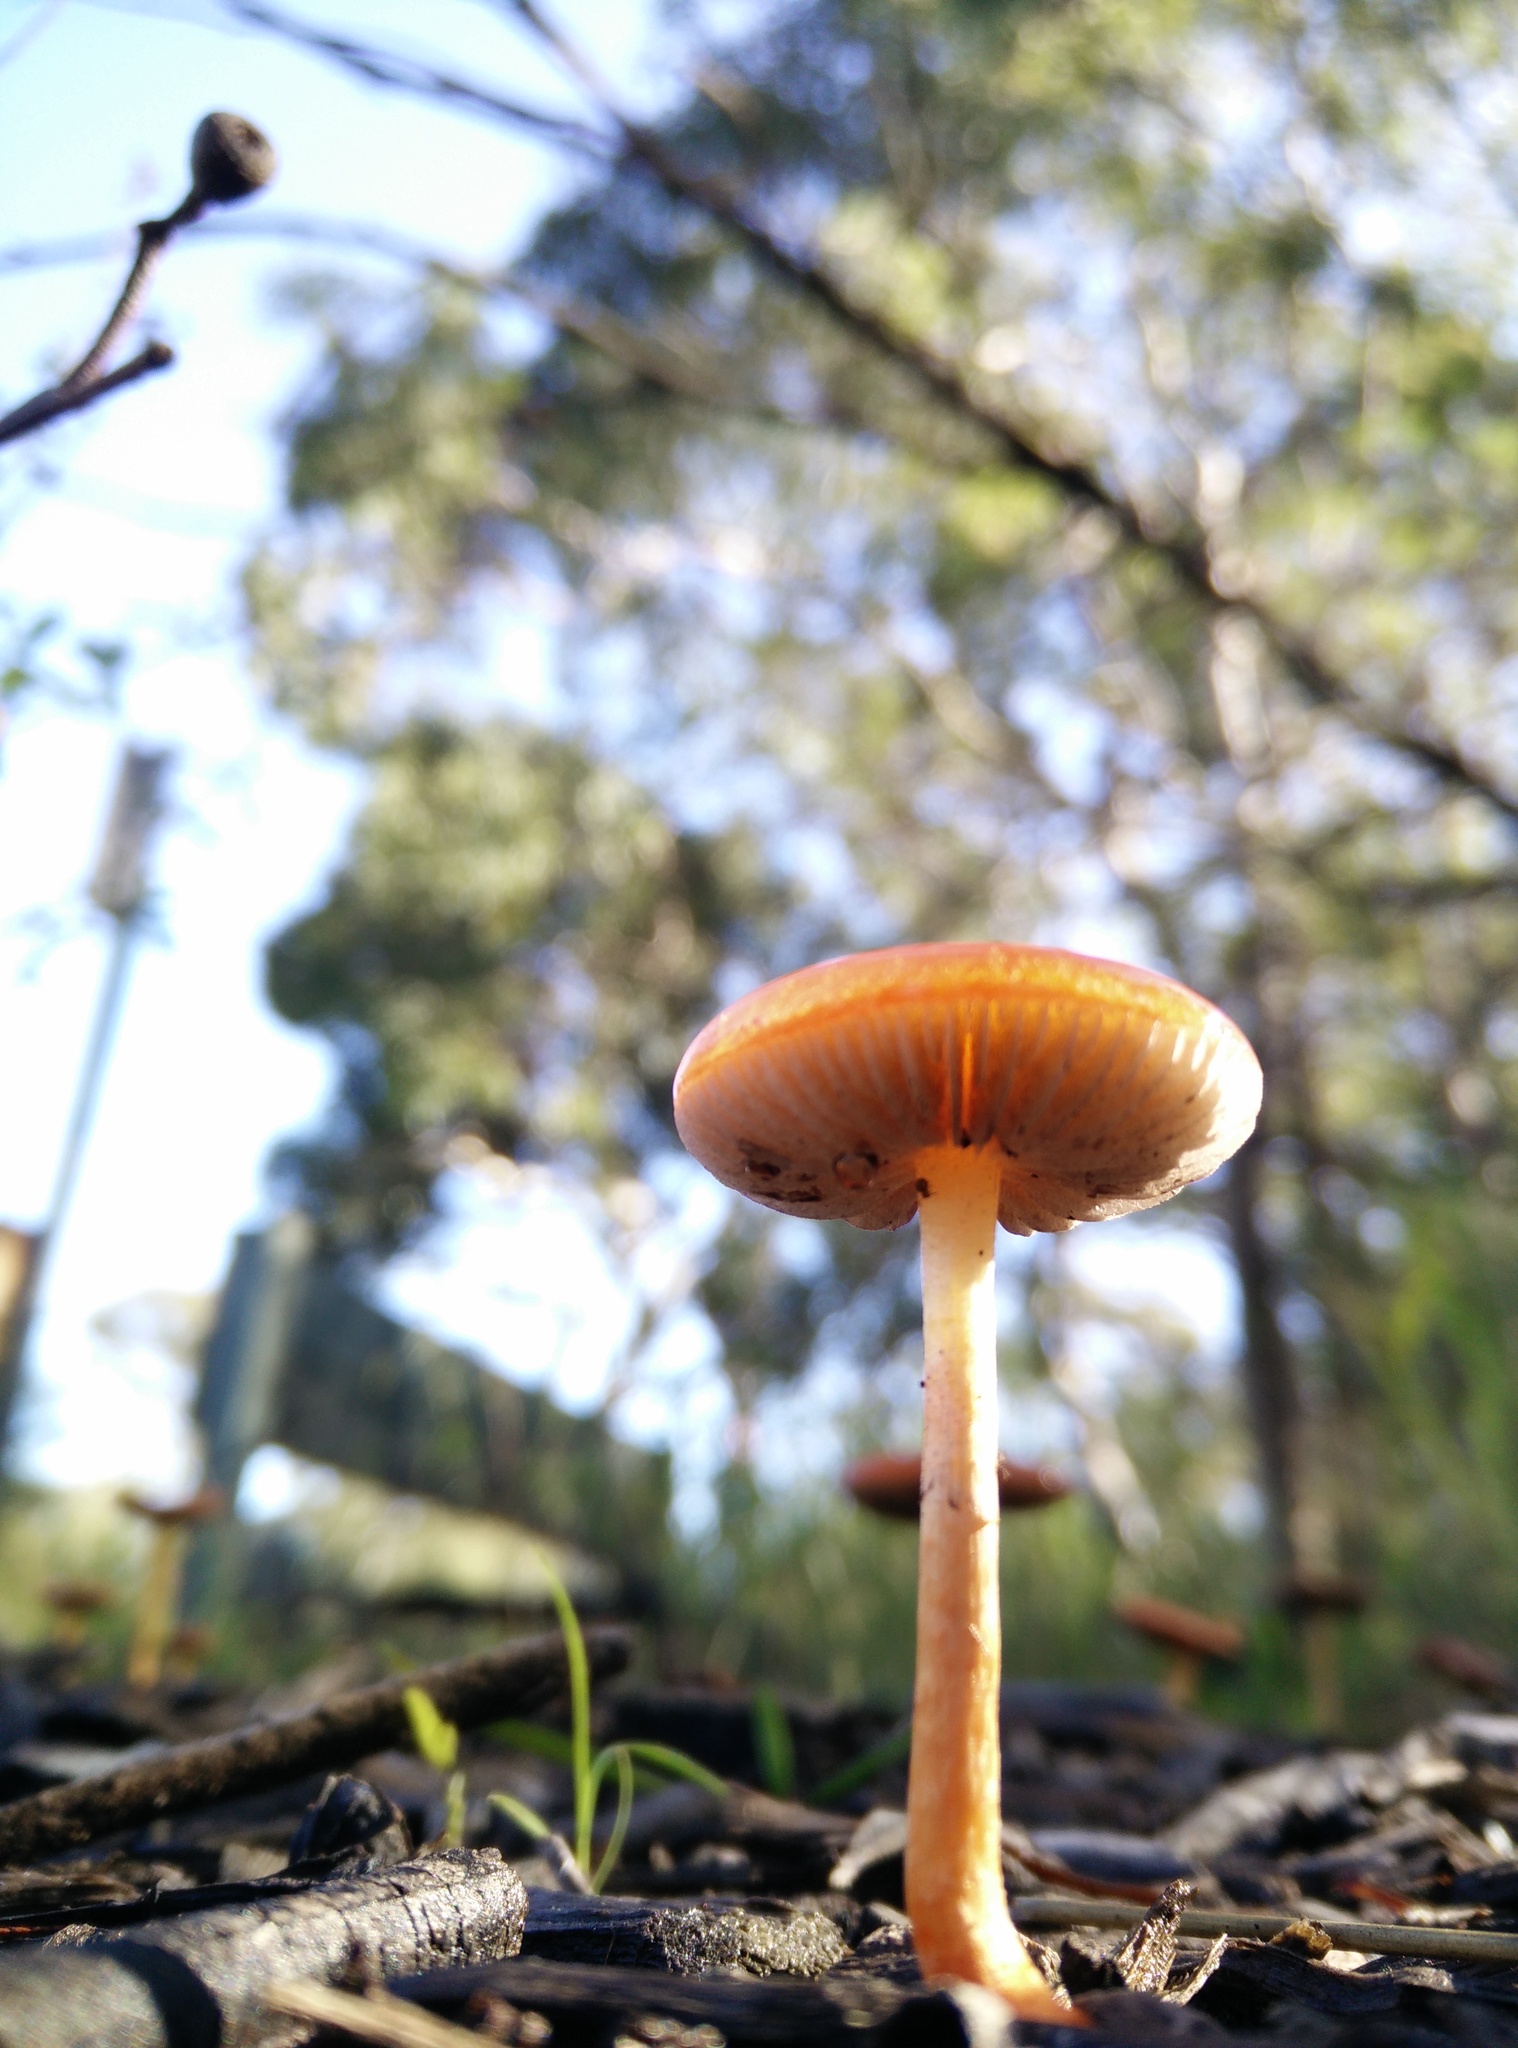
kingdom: Fungi
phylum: Basidiomycota
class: Agaricomycetes
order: Agaricales
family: Strophariaceae
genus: Leratiomyces
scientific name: Leratiomyces ceres
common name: Redlead roundhead
